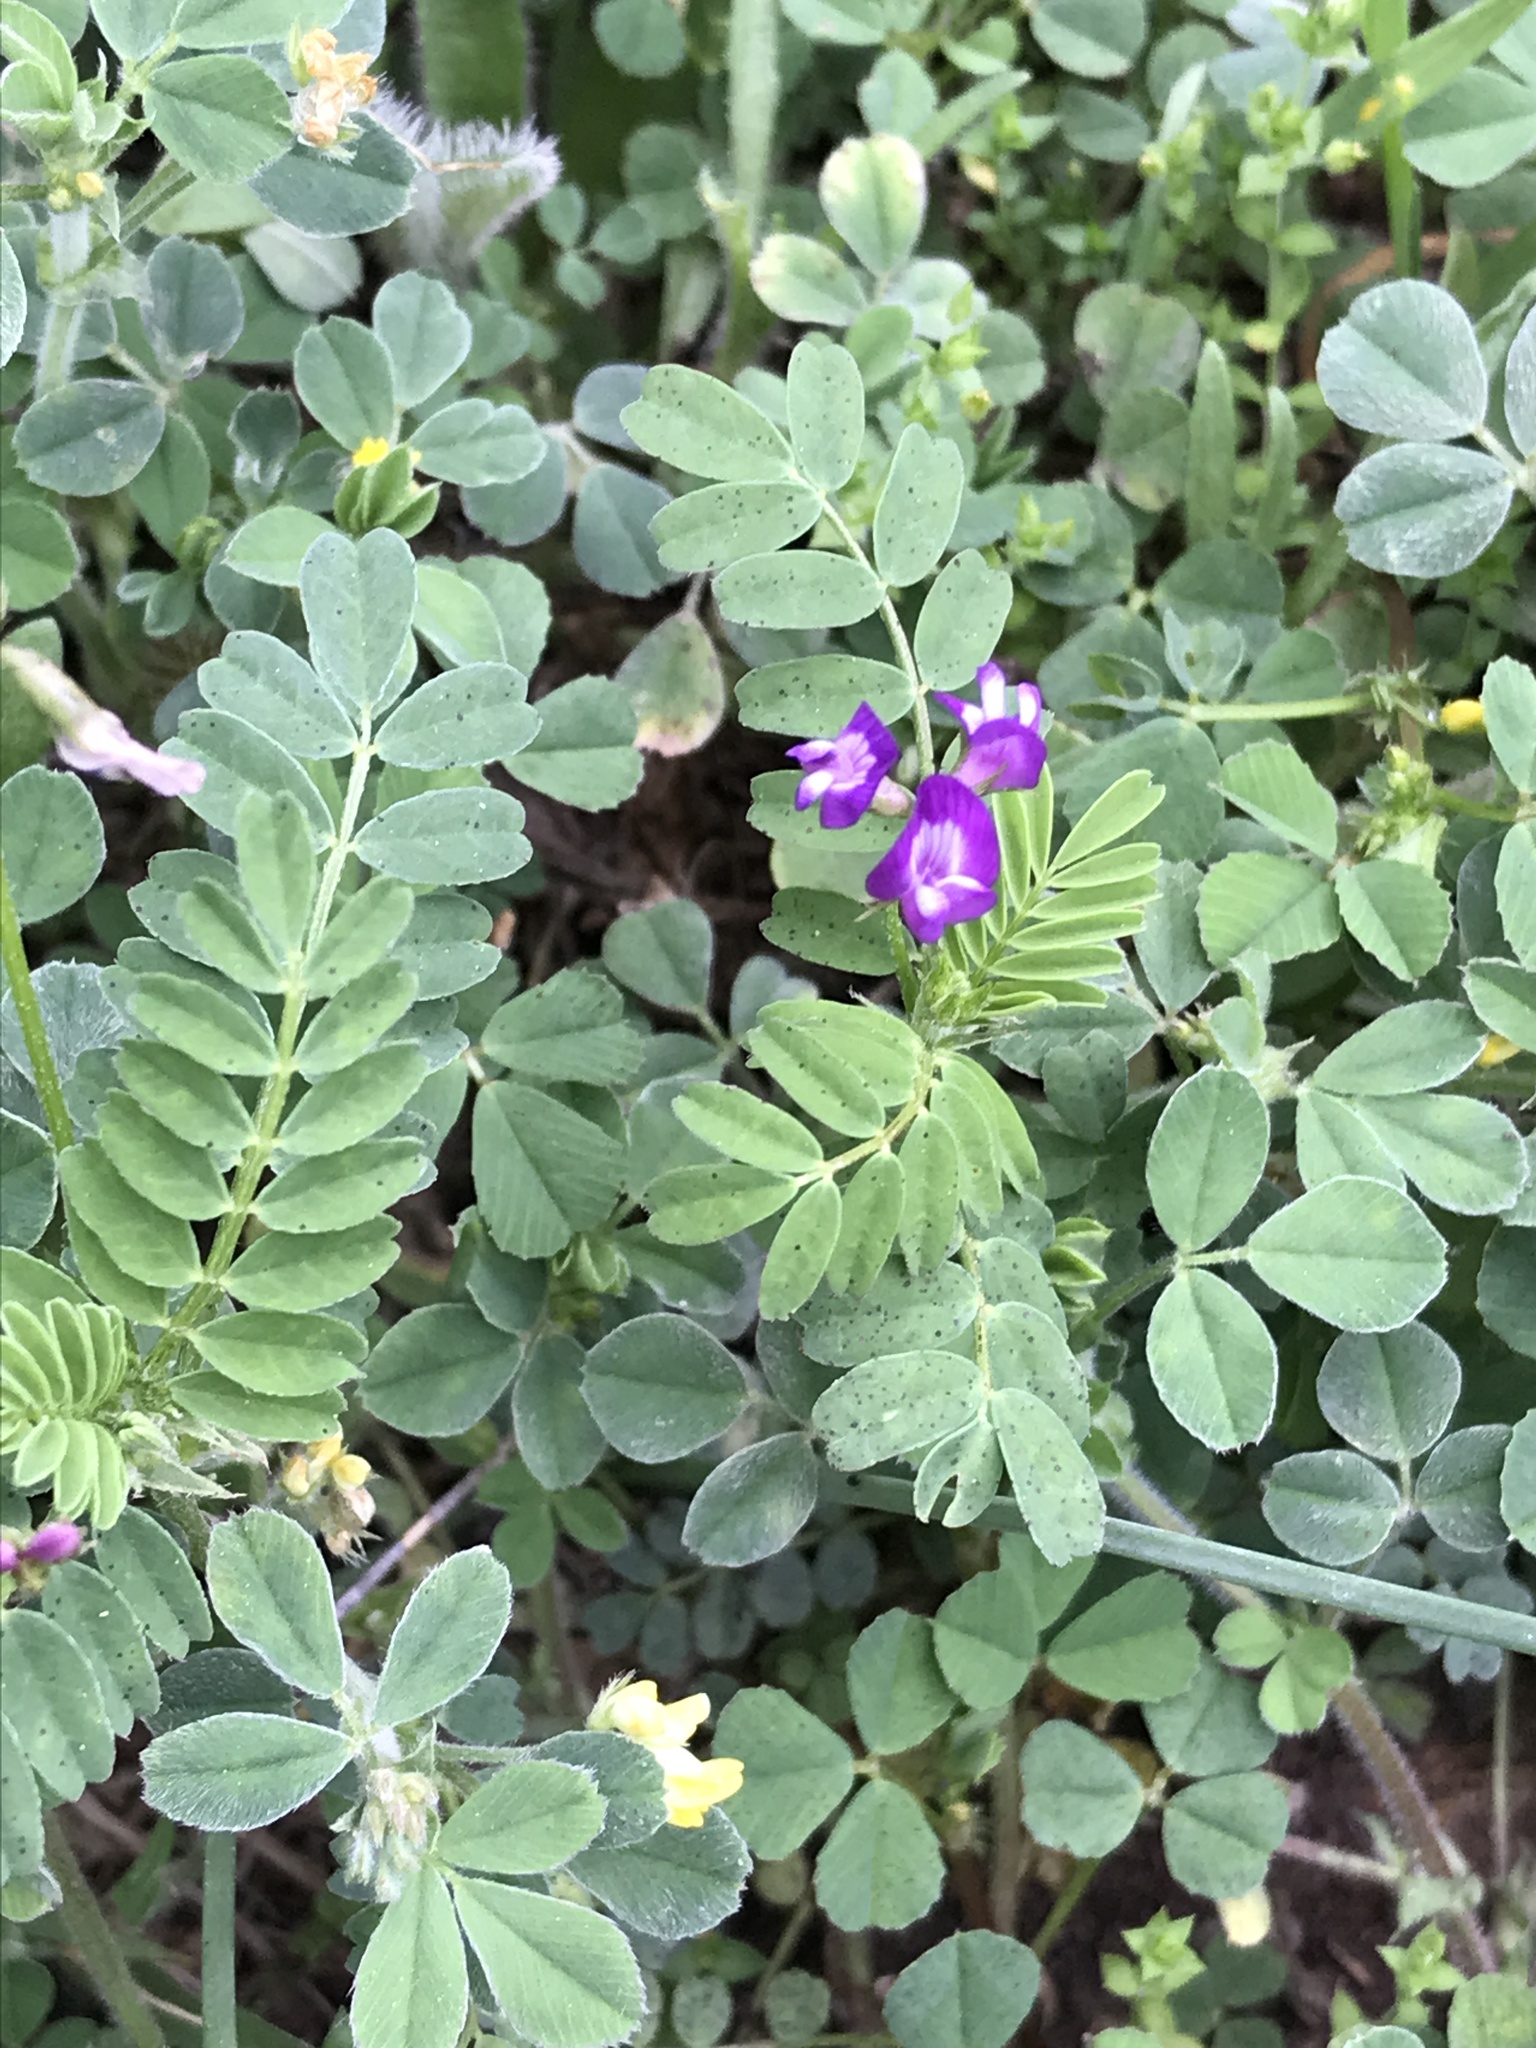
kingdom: Plantae
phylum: Tracheophyta
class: Magnoliopsida
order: Fabales
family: Fabaceae
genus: Astragalus
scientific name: Astragalus nuttallianus
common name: Smallflowered milkvetch
